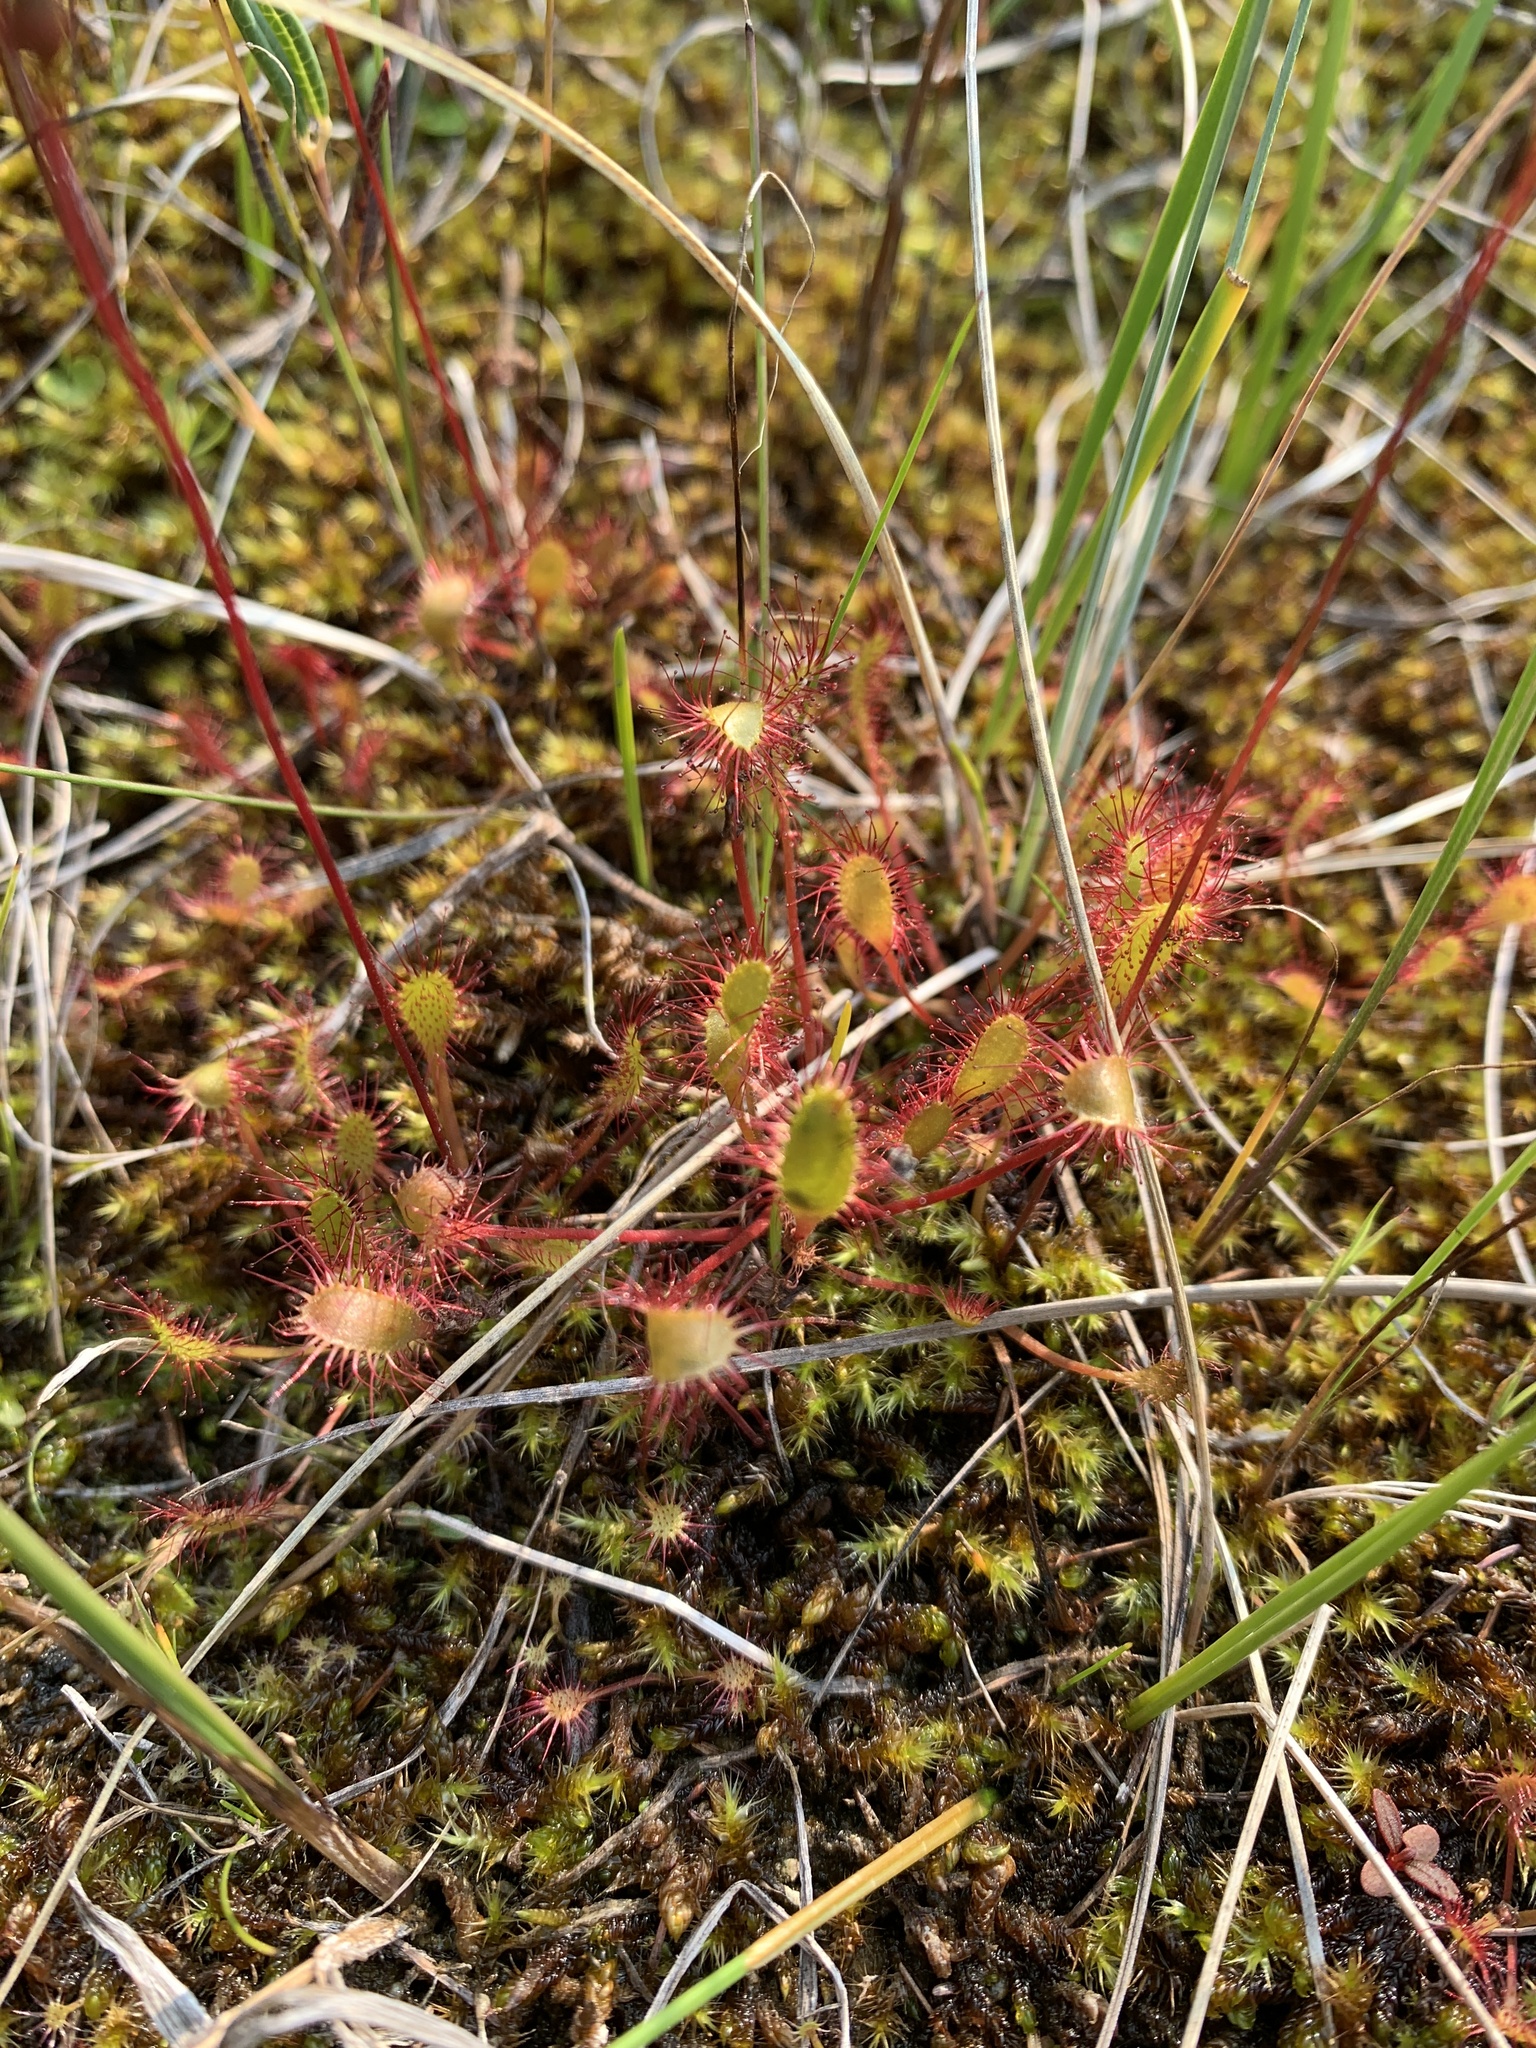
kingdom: Plantae
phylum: Tracheophyta
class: Magnoliopsida
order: Caryophyllales
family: Droseraceae
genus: Drosera
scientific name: Drosera anglica
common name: Great sundew
